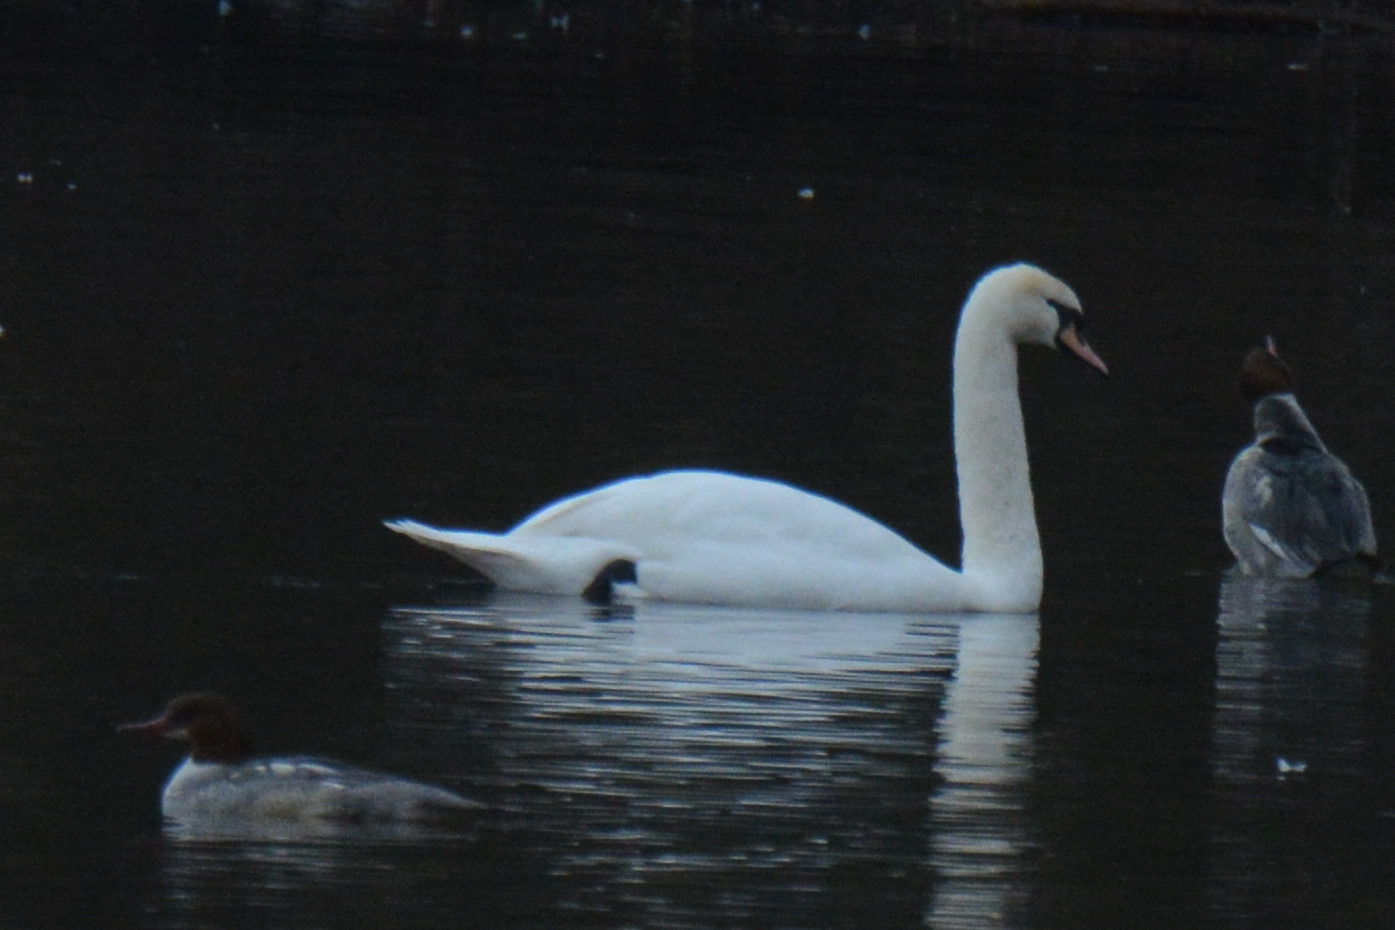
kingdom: Animalia
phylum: Chordata
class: Aves
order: Anseriformes
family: Anatidae
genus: Cygnus
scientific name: Cygnus olor
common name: Mute swan
